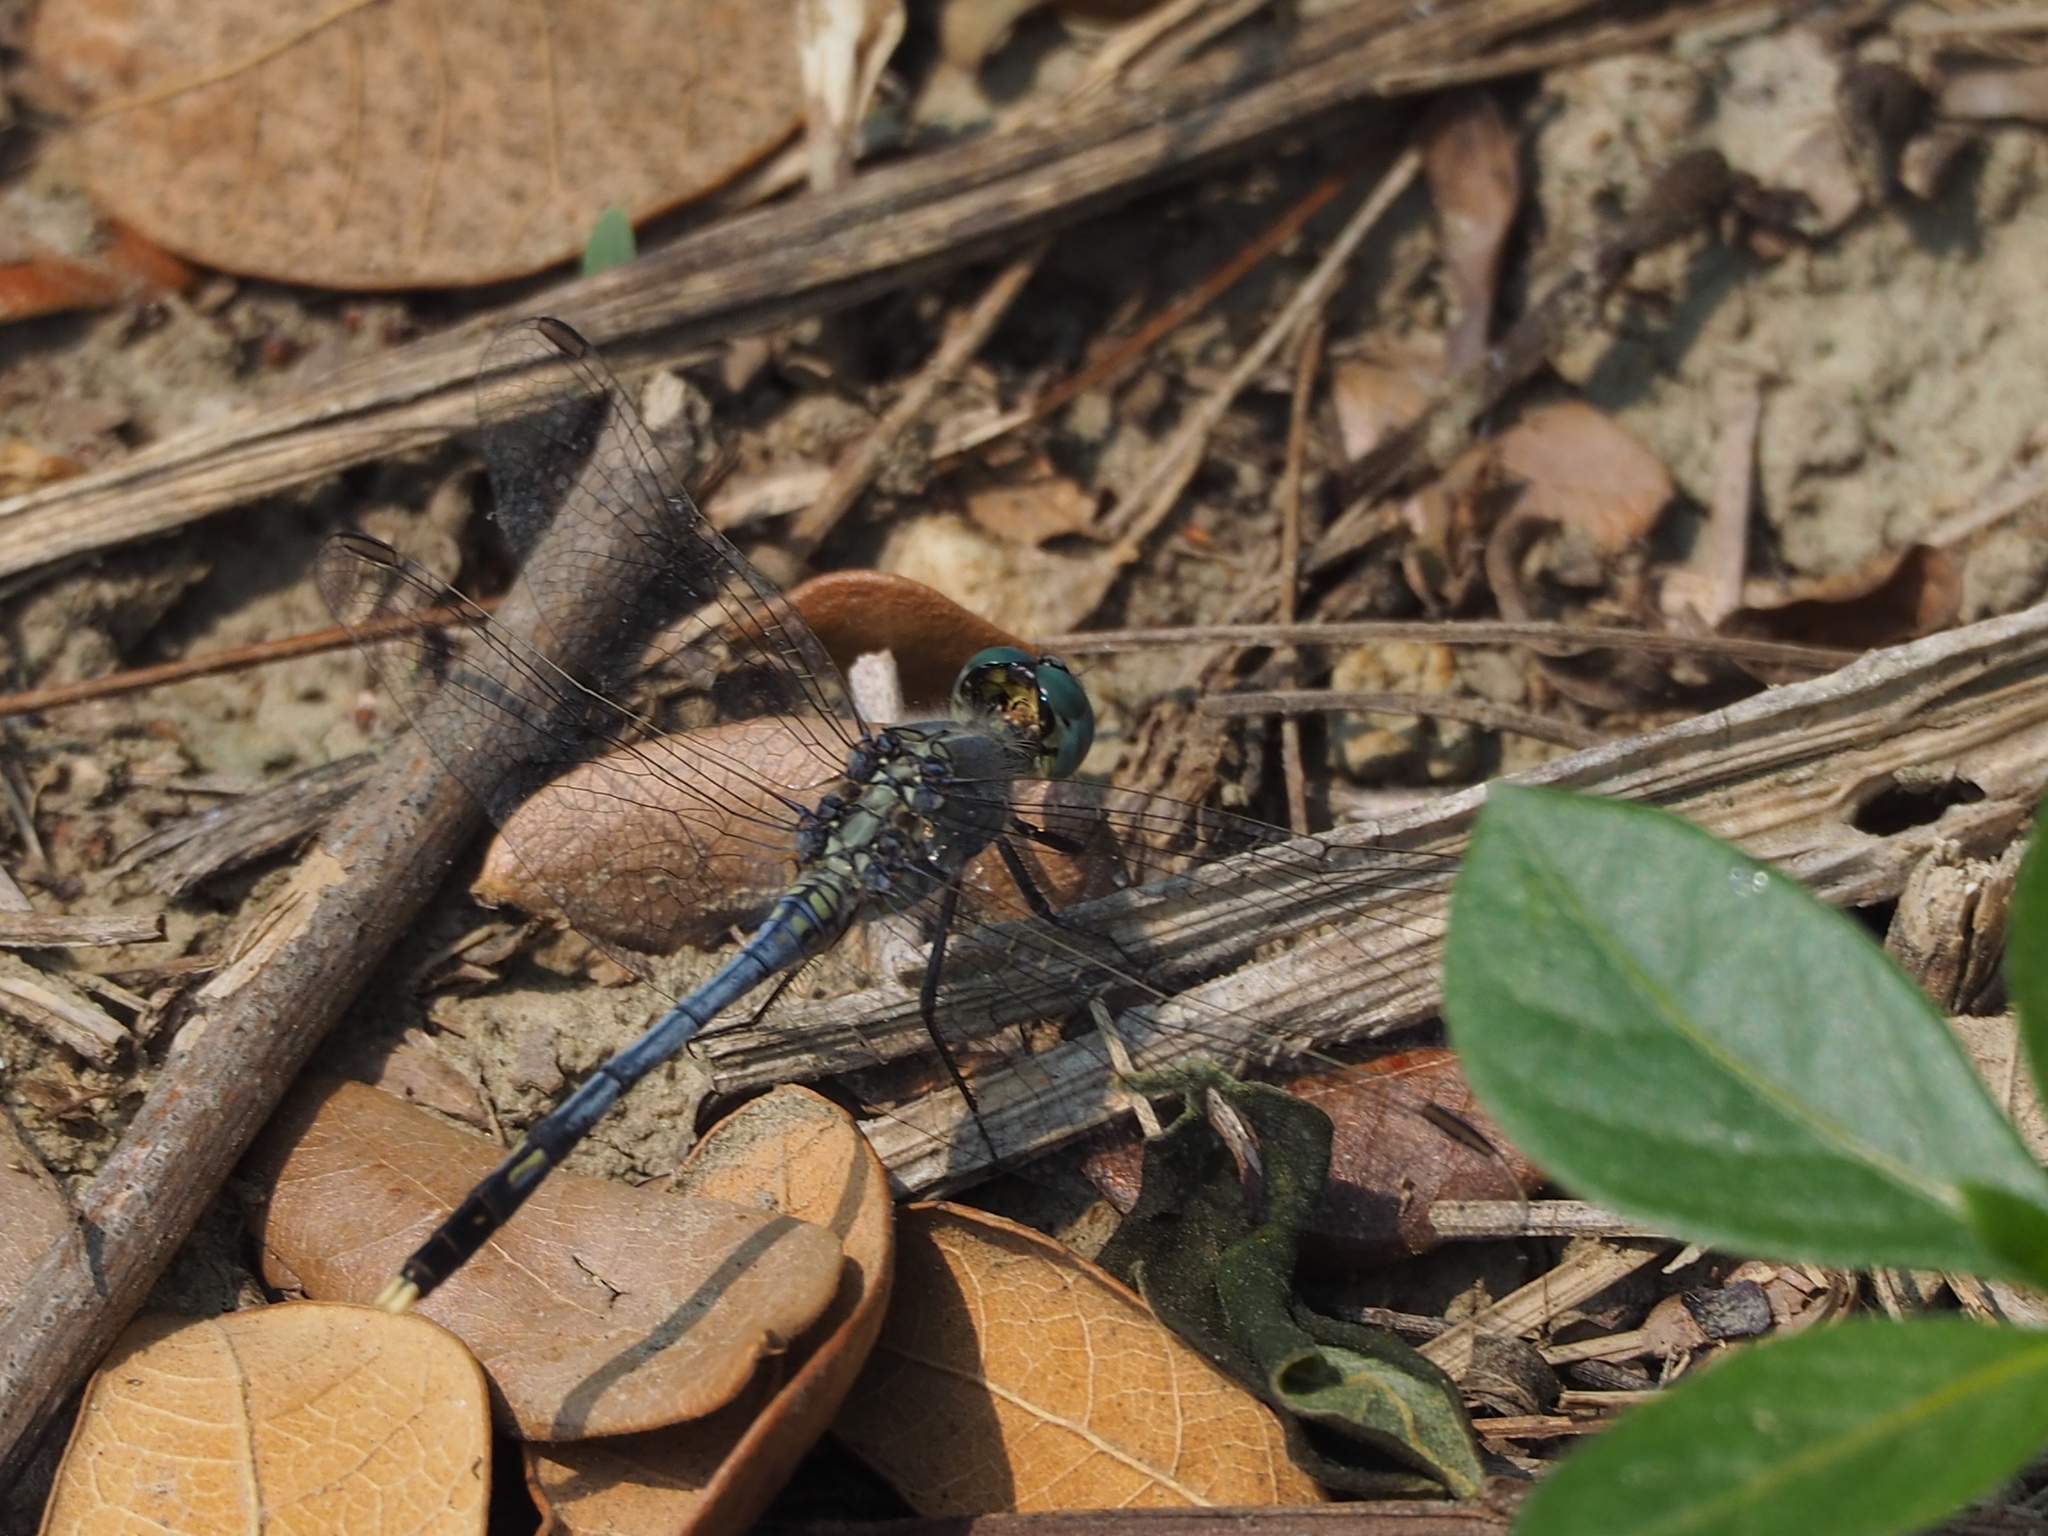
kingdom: Animalia
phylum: Arthropoda
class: Insecta
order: Odonata
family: Libellulidae
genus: Diplacodes
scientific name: Diplacodes trivialis
